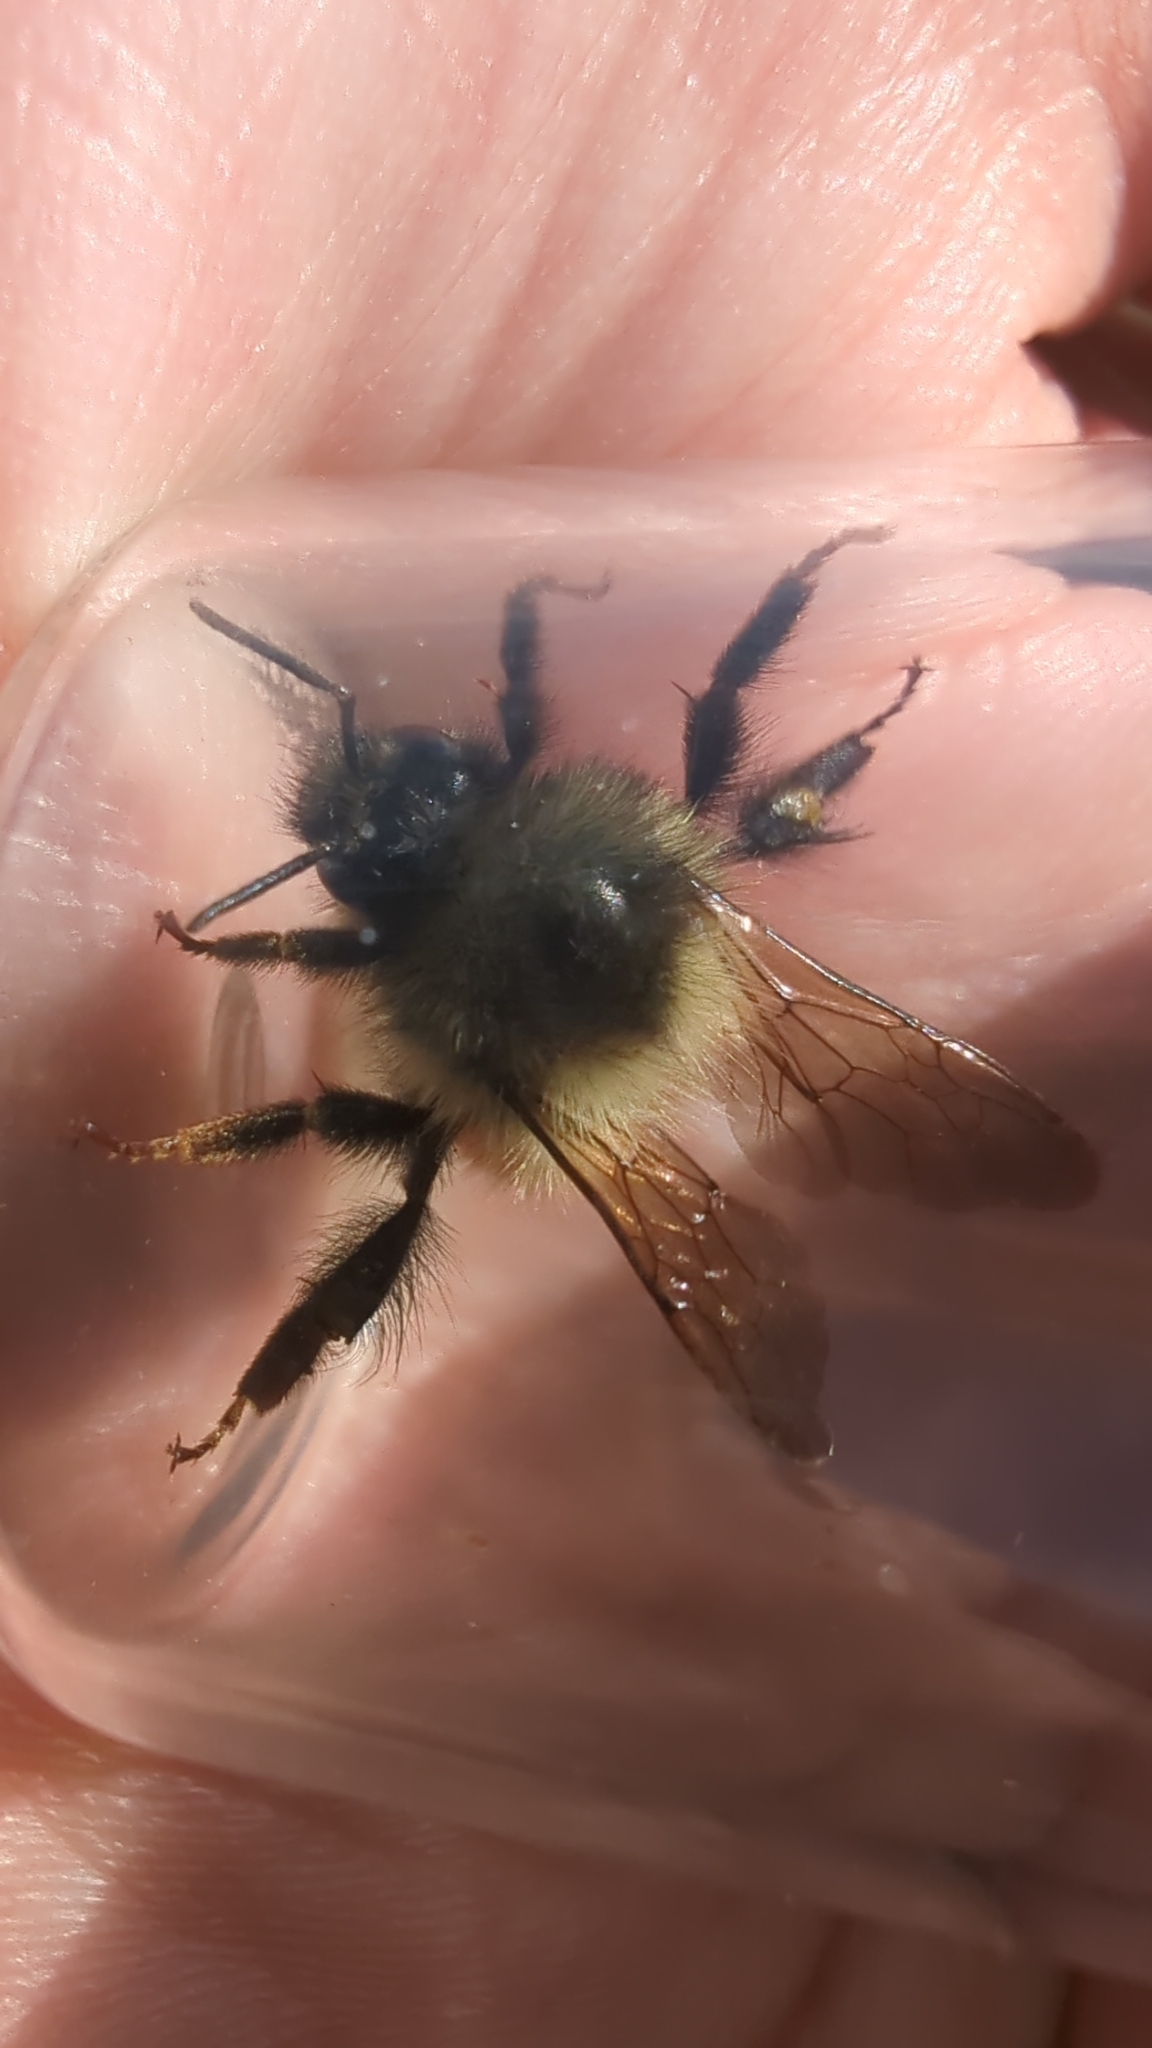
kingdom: Animalia
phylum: Arthropoda
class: Insecta
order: Hymenoptera
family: Apidae
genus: Bombus
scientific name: Bombus melanopygus
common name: Black tail bumble bee
